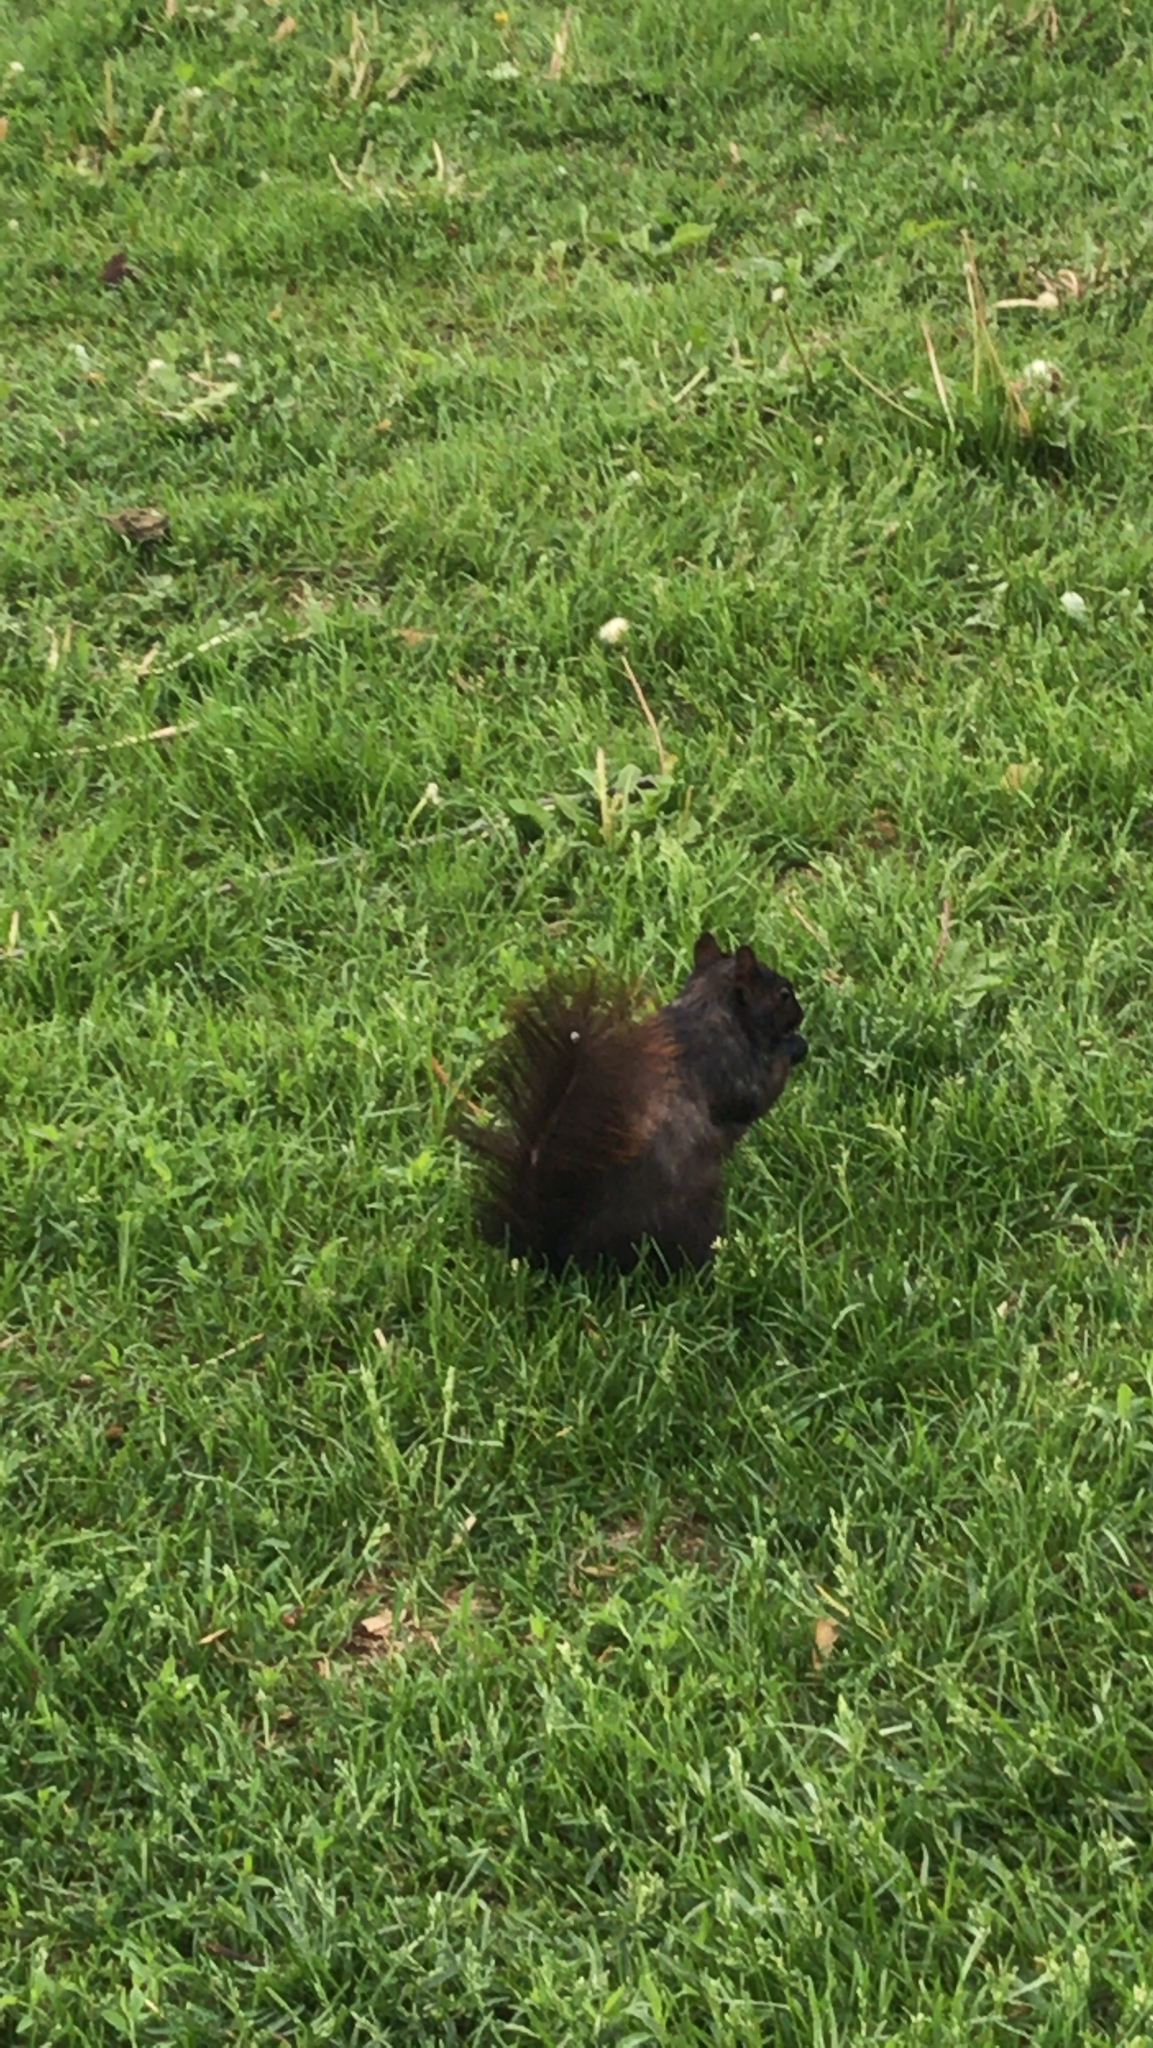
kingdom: Animalia
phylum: Chordata
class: Mammalia
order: Rodentia
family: Sciuridae
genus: Sciurus
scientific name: Sciurus carolinensis
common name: Eastern gray squirrel
